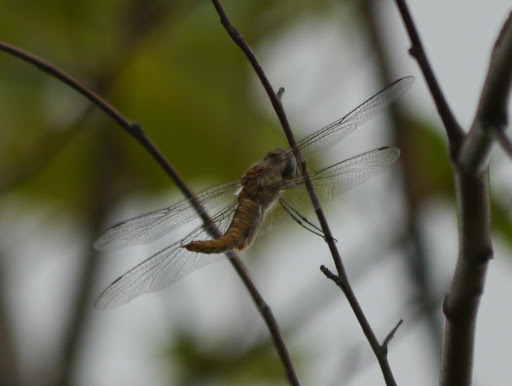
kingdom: Animalia
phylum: Arthropoda
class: Insecta
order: Odonata
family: Libellulidae
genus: Pantala
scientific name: Pantala hymenaea
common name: Spot-winged glider
